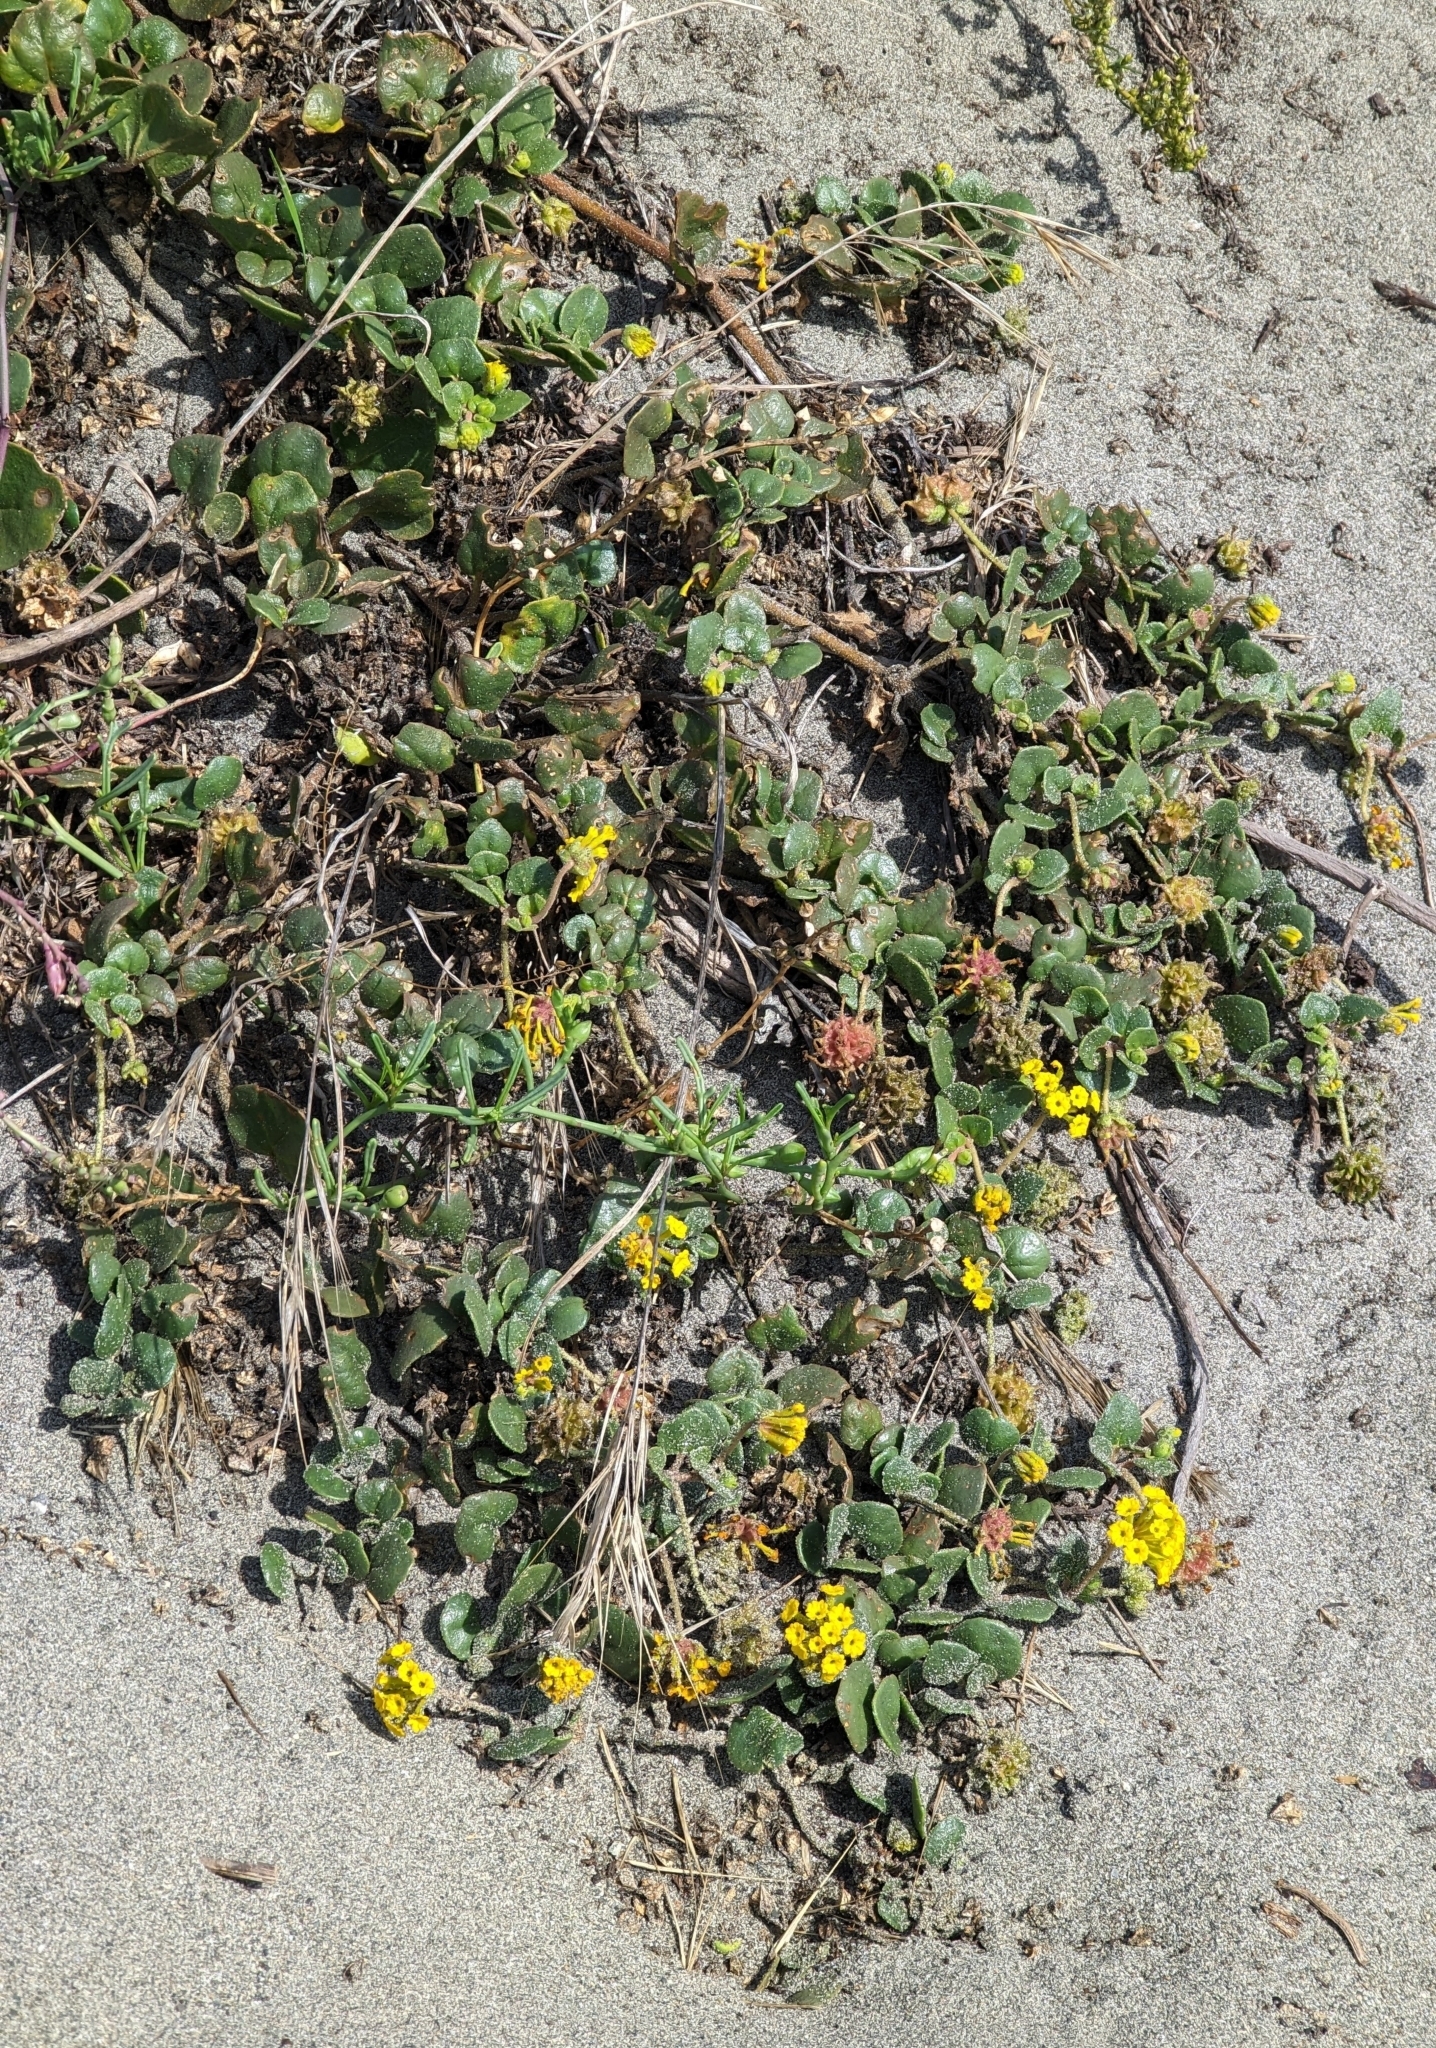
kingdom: Plantae
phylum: Tracheophyta
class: Magnoliopsida
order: Caryophyllales
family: Nyctaginaceae
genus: Abronia
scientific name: Abronia latifolia
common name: Yellow sand-verbena
